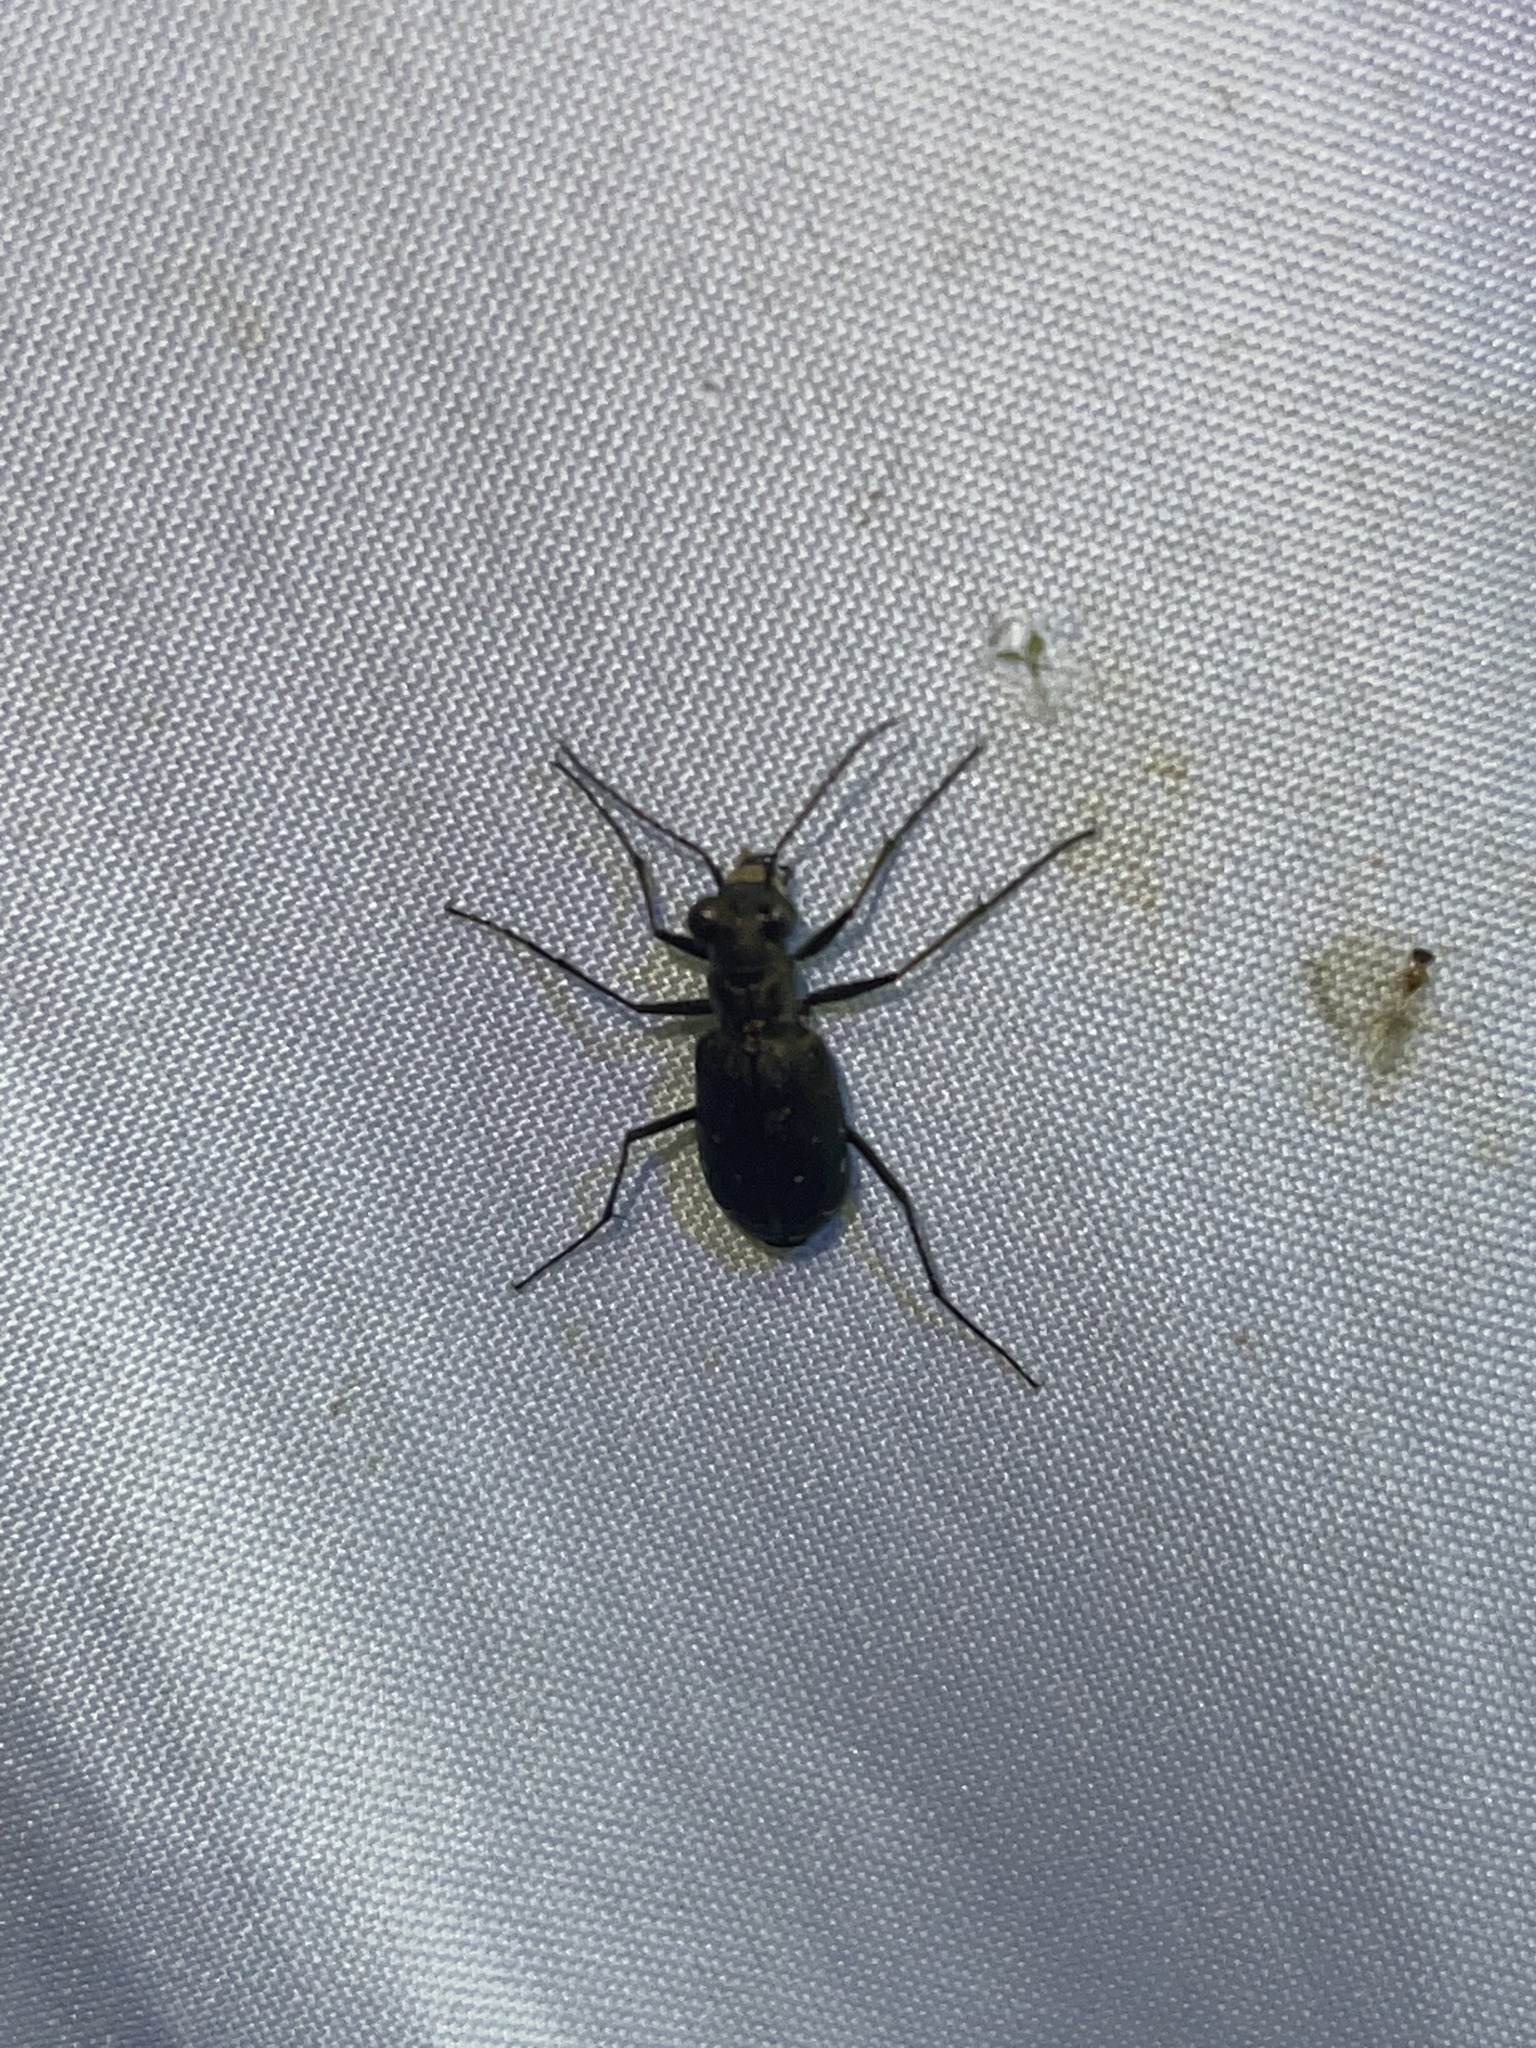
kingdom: Animalia
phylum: Arthropoda
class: Insecta
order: Coleoptera
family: Carabidae
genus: Cicindela
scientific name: Cicindela punctulata
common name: Punctured tiger beetle
